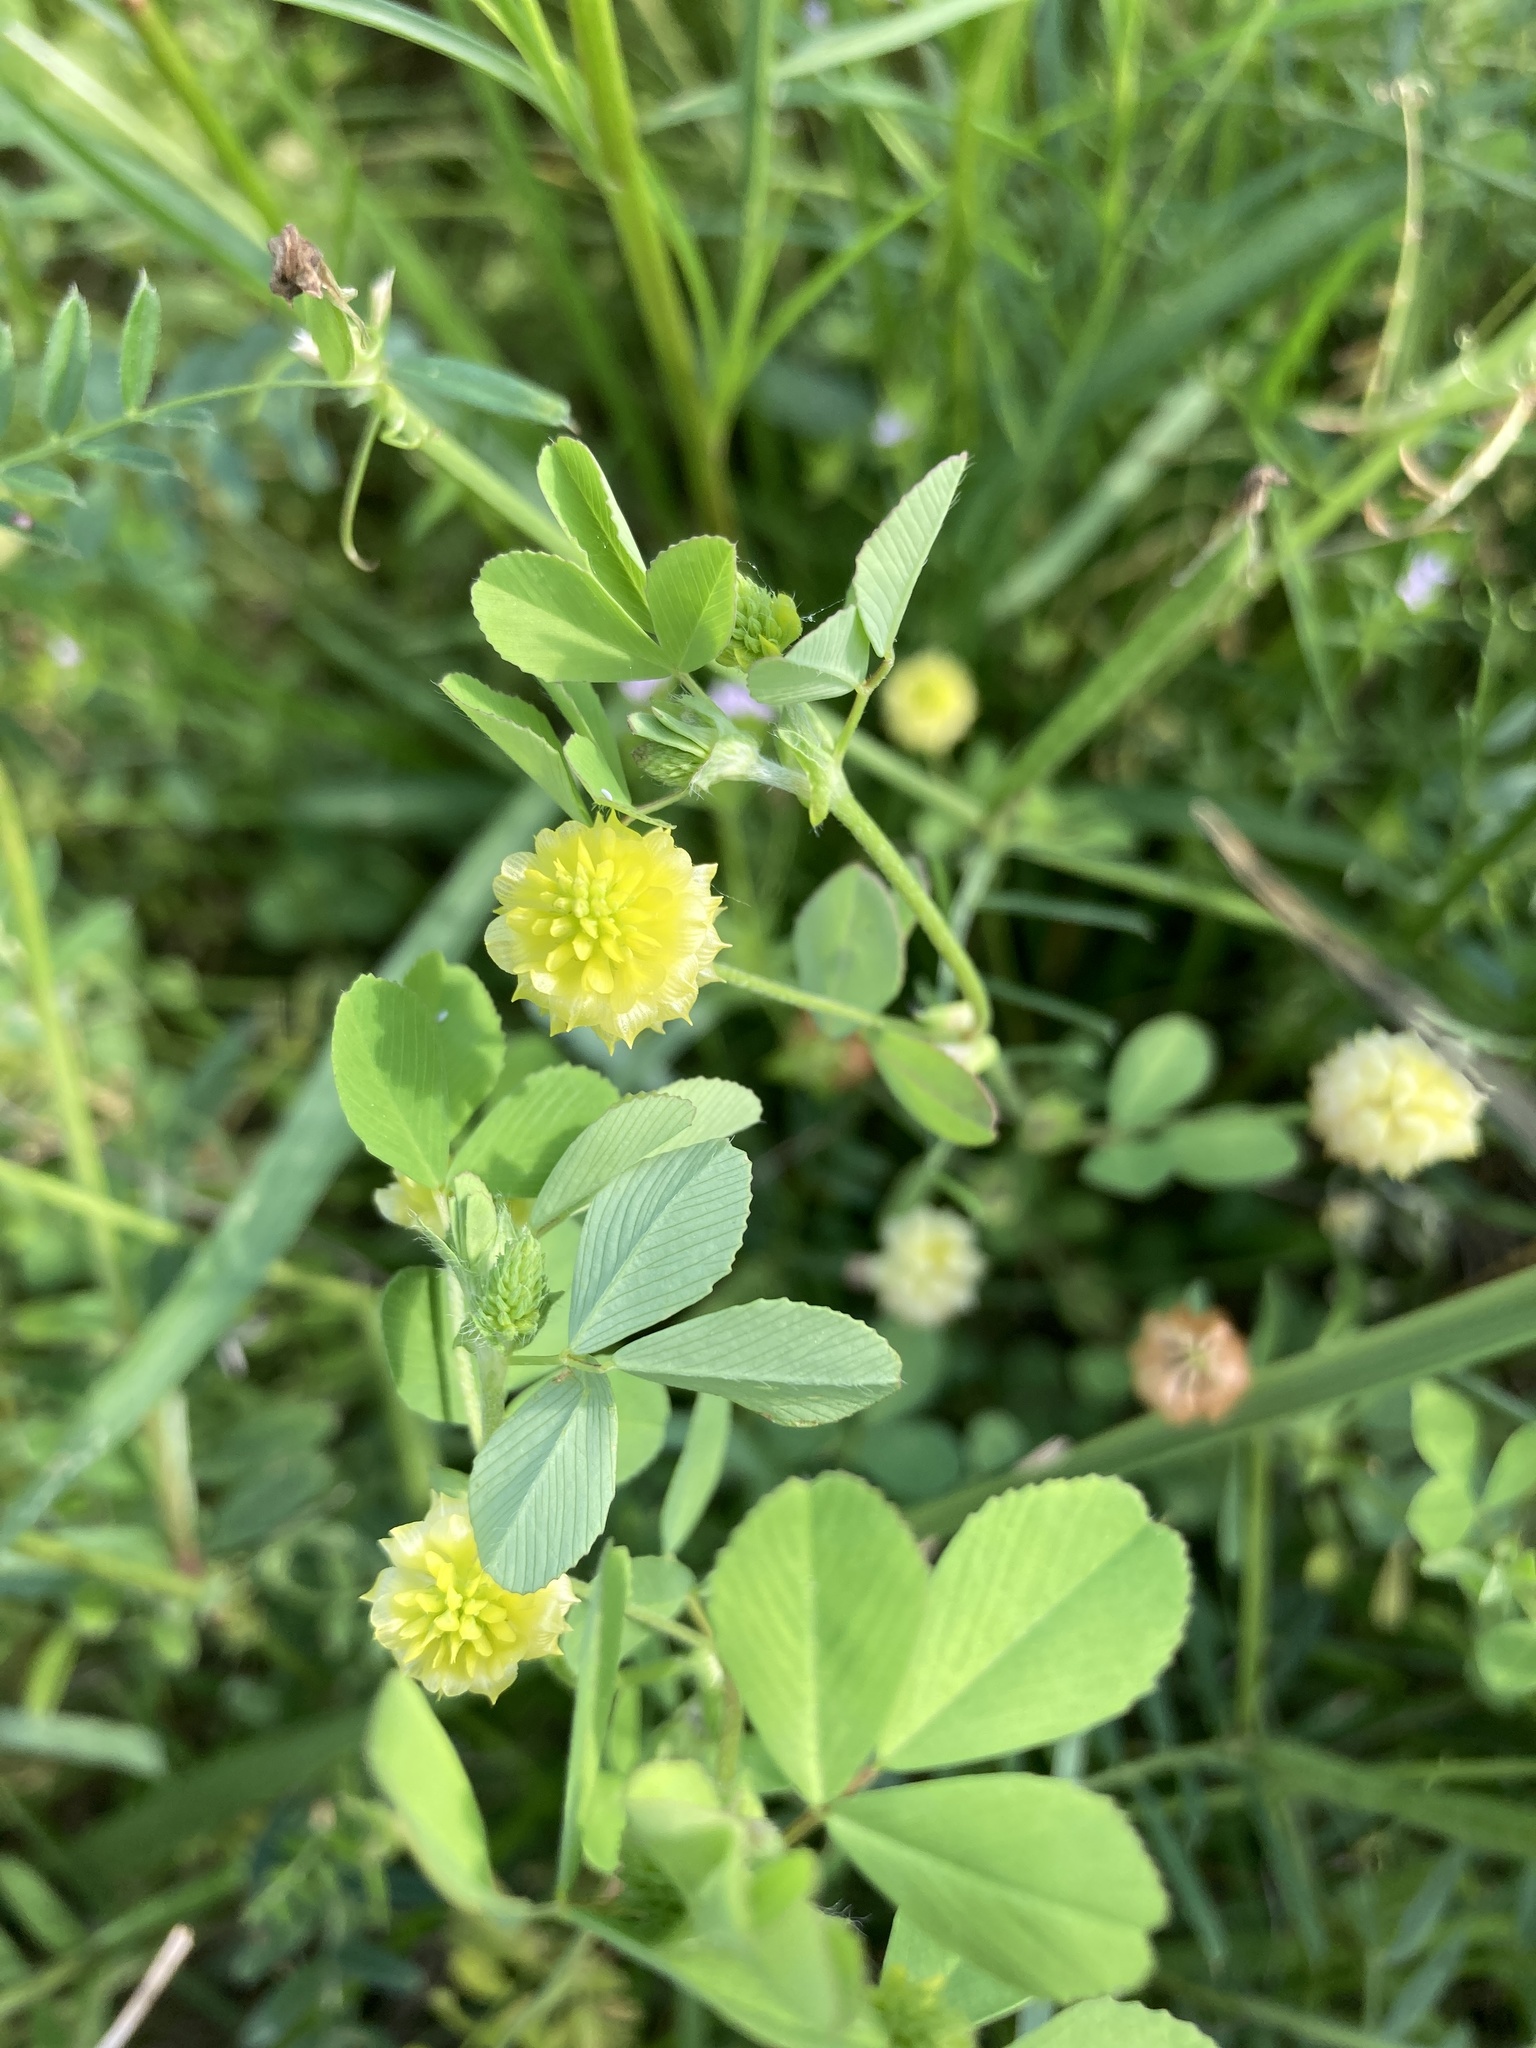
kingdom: Plantae
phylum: Tracheophyta
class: Magnoliopsida
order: Fabales
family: Fabaceae
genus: Trifolium
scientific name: Trifolium campestre
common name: Field clover
